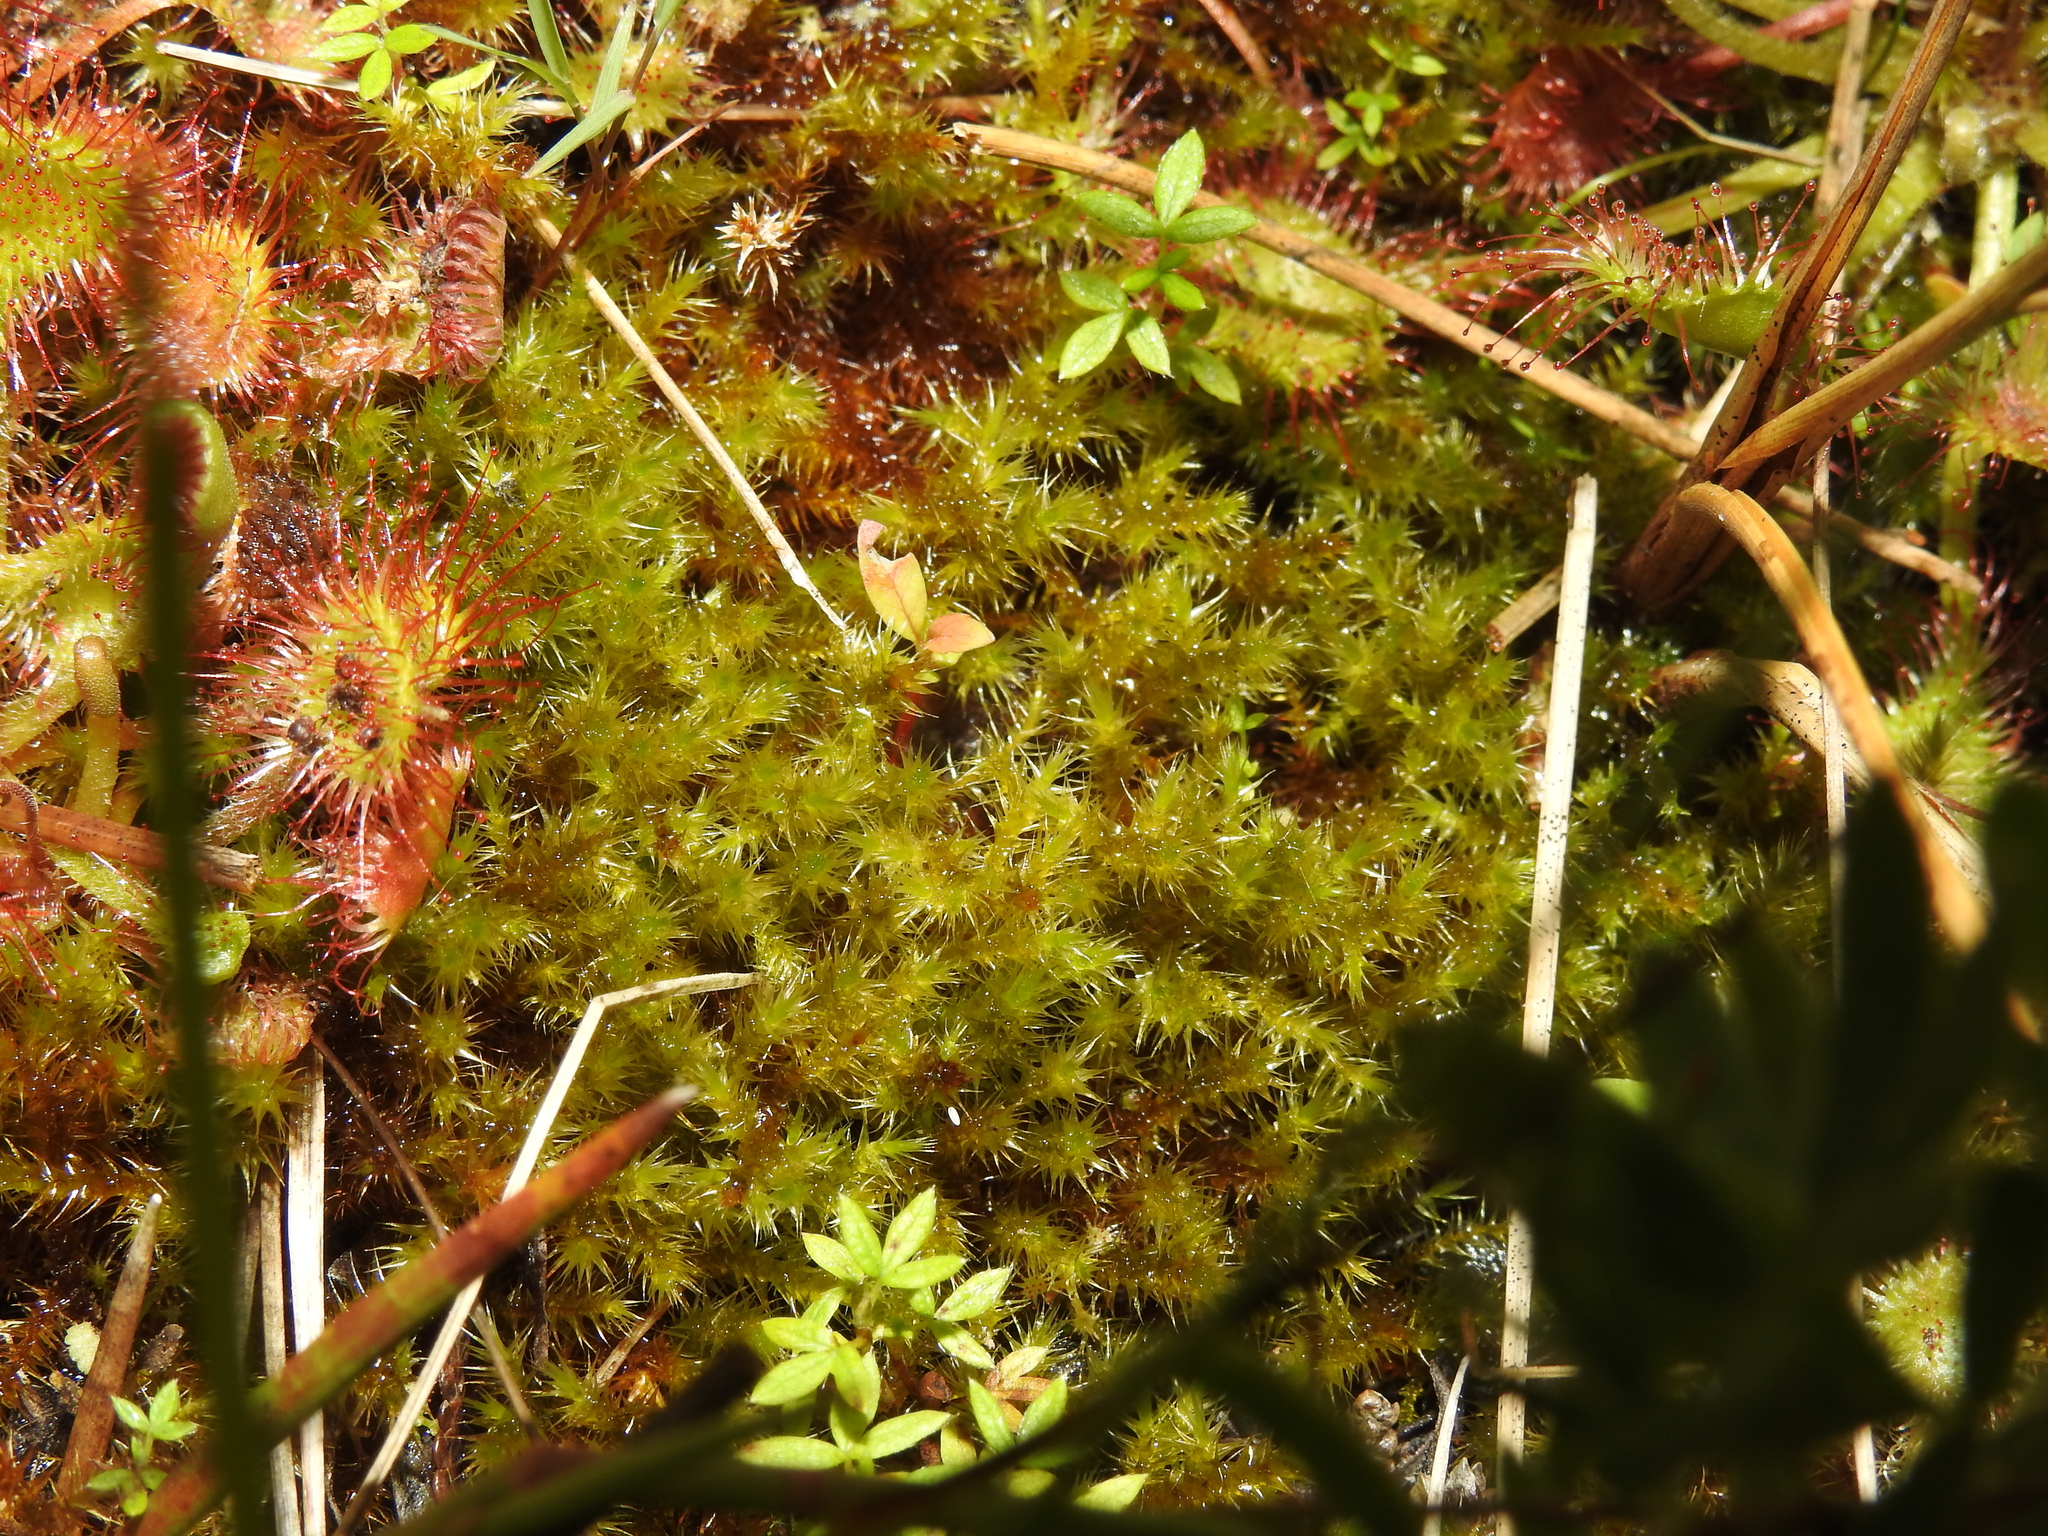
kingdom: Plantae
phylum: Bryophyta
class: Bryopsida
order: Hypnales
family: Amblystegiaceae
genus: Campylium
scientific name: Campylium stellatum
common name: Yellow starry fen moss
